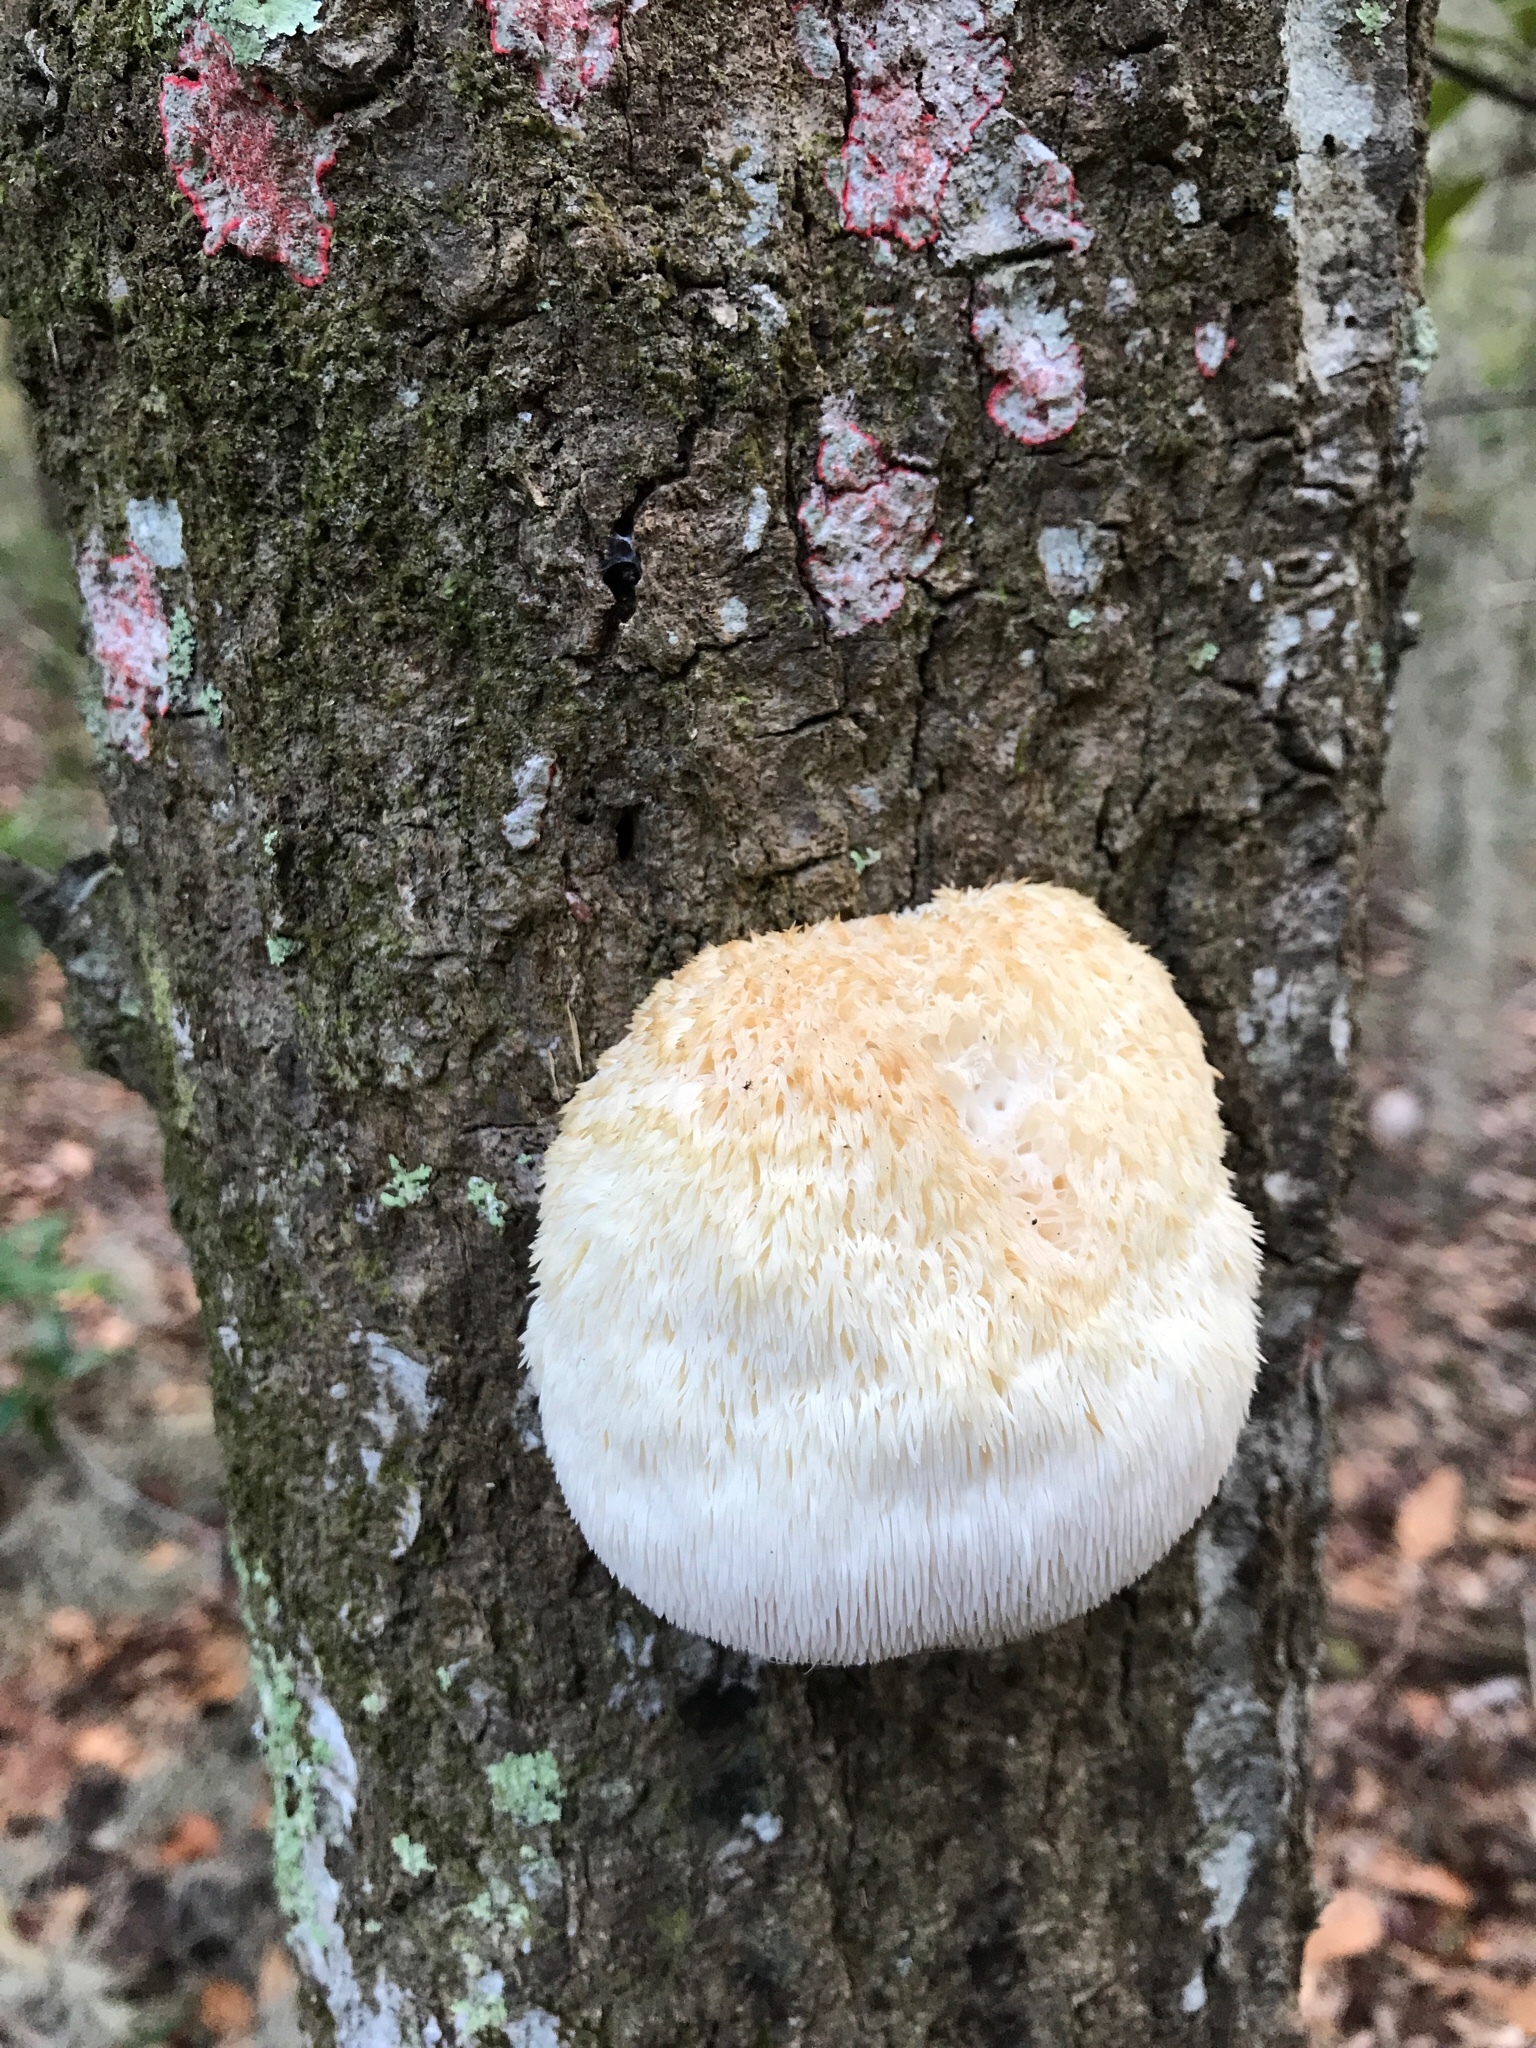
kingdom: Fungi
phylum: Basidiomycota
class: Agaricomycetes
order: Russulales
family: Hericiaceae
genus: Hericium
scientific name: Hericium erinaceus
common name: Bearded tooth
